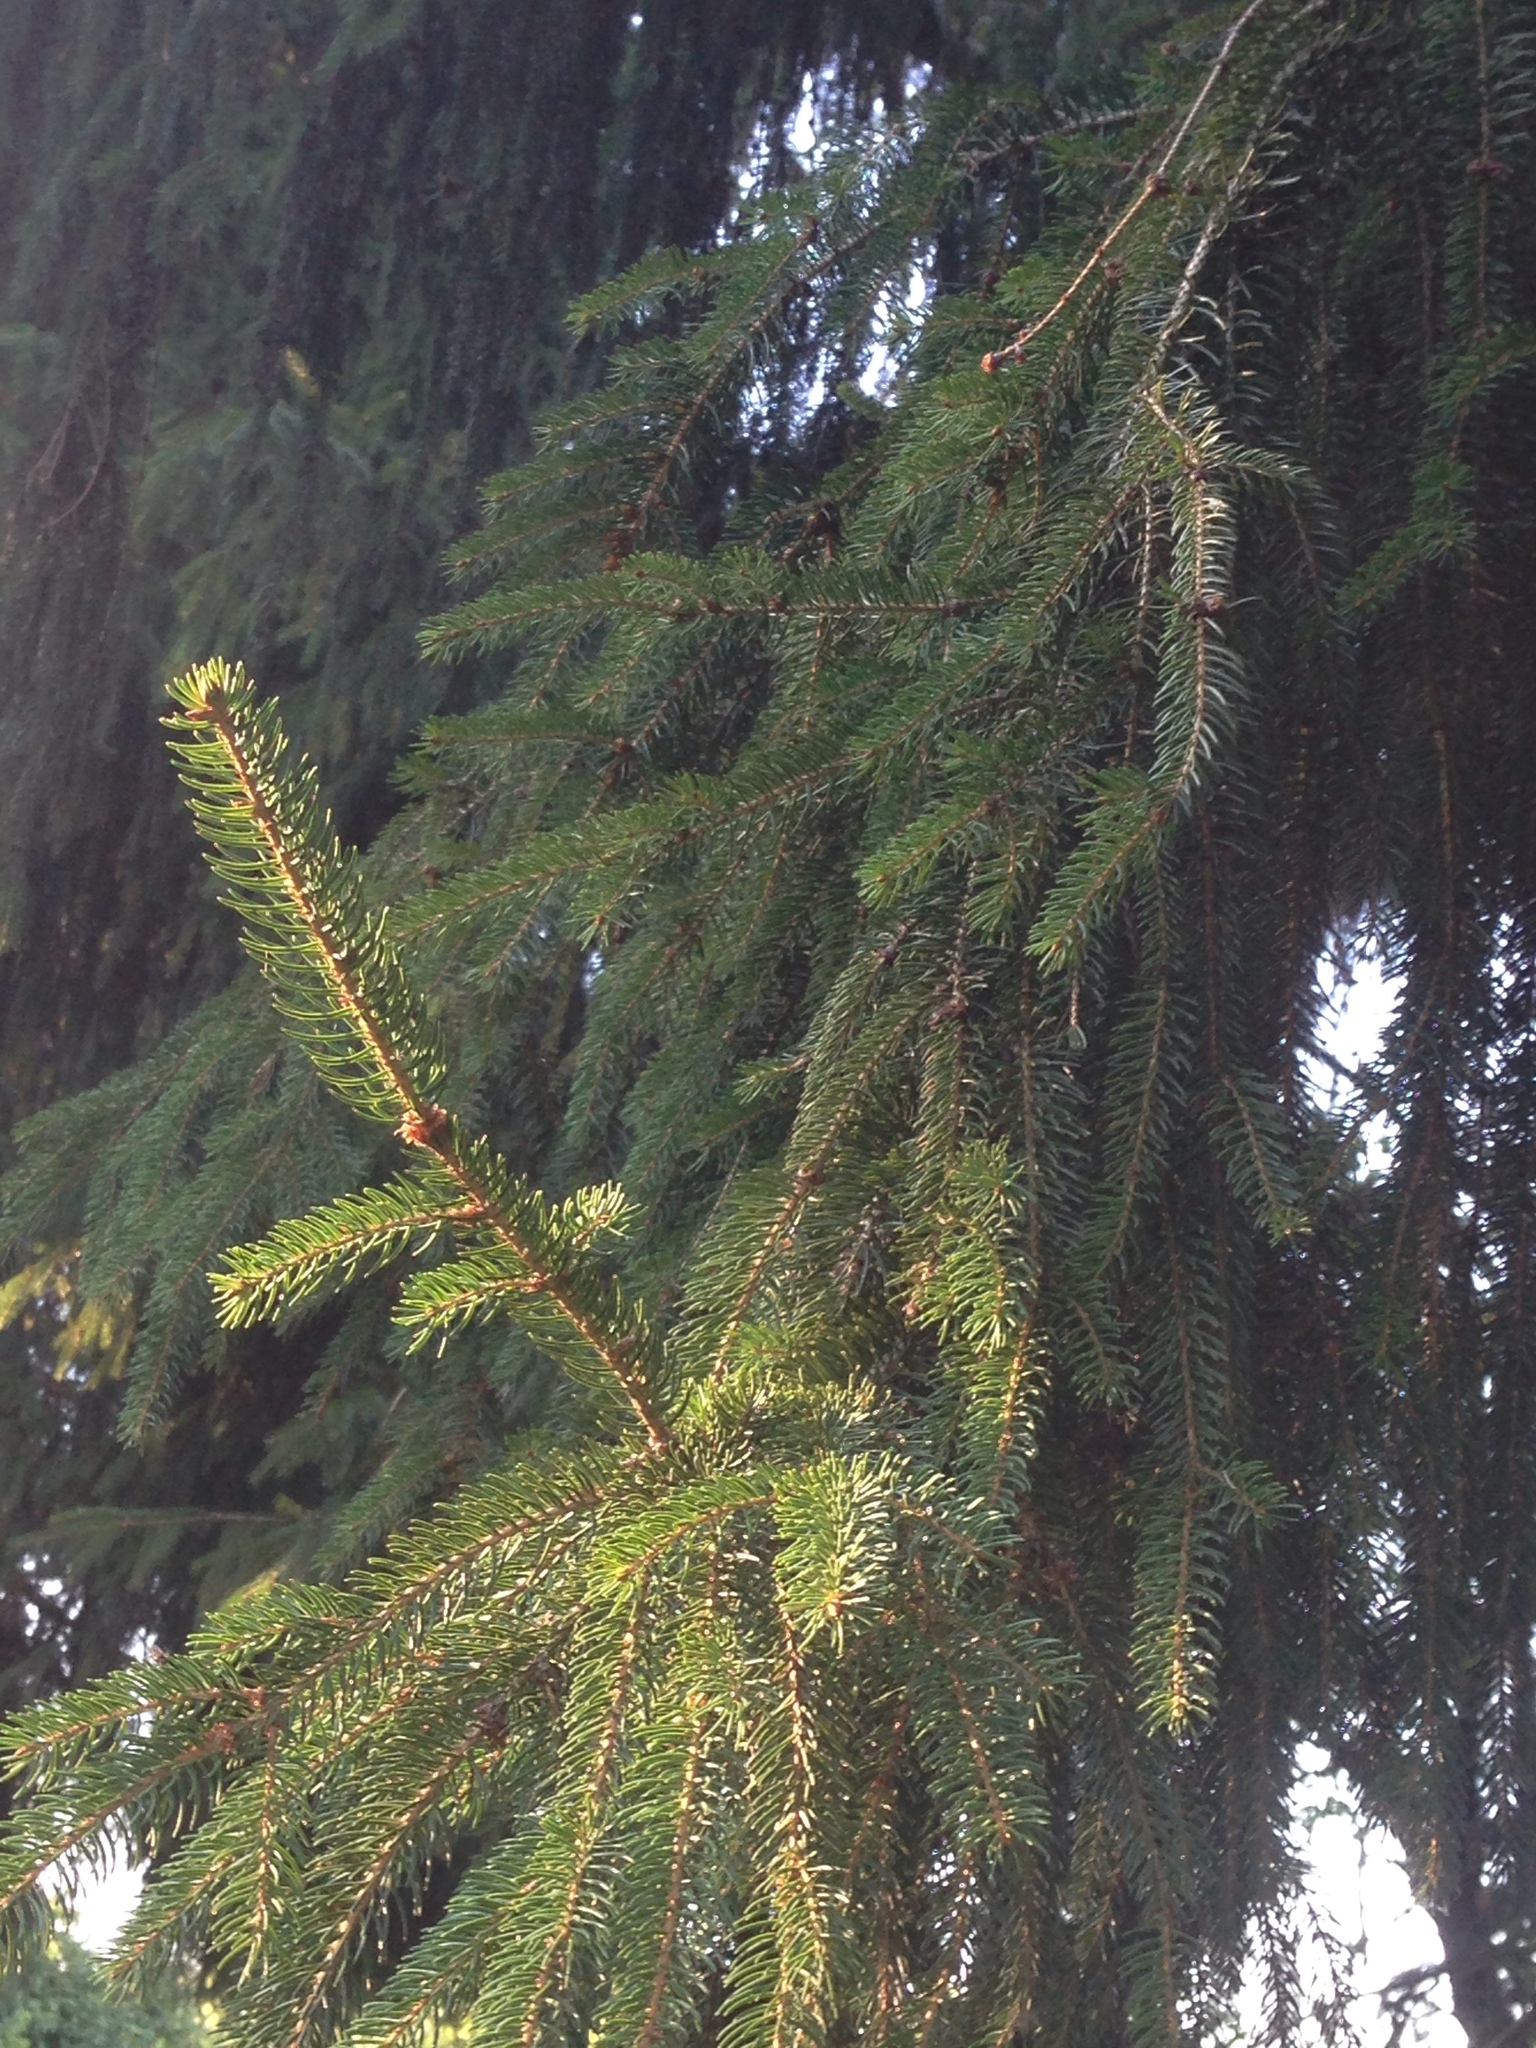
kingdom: Plantae
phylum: Tracheophyta
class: Pinopsida
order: Pinales
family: Pinaceae
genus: Picea
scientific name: Picea abies
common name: Norway spruce
